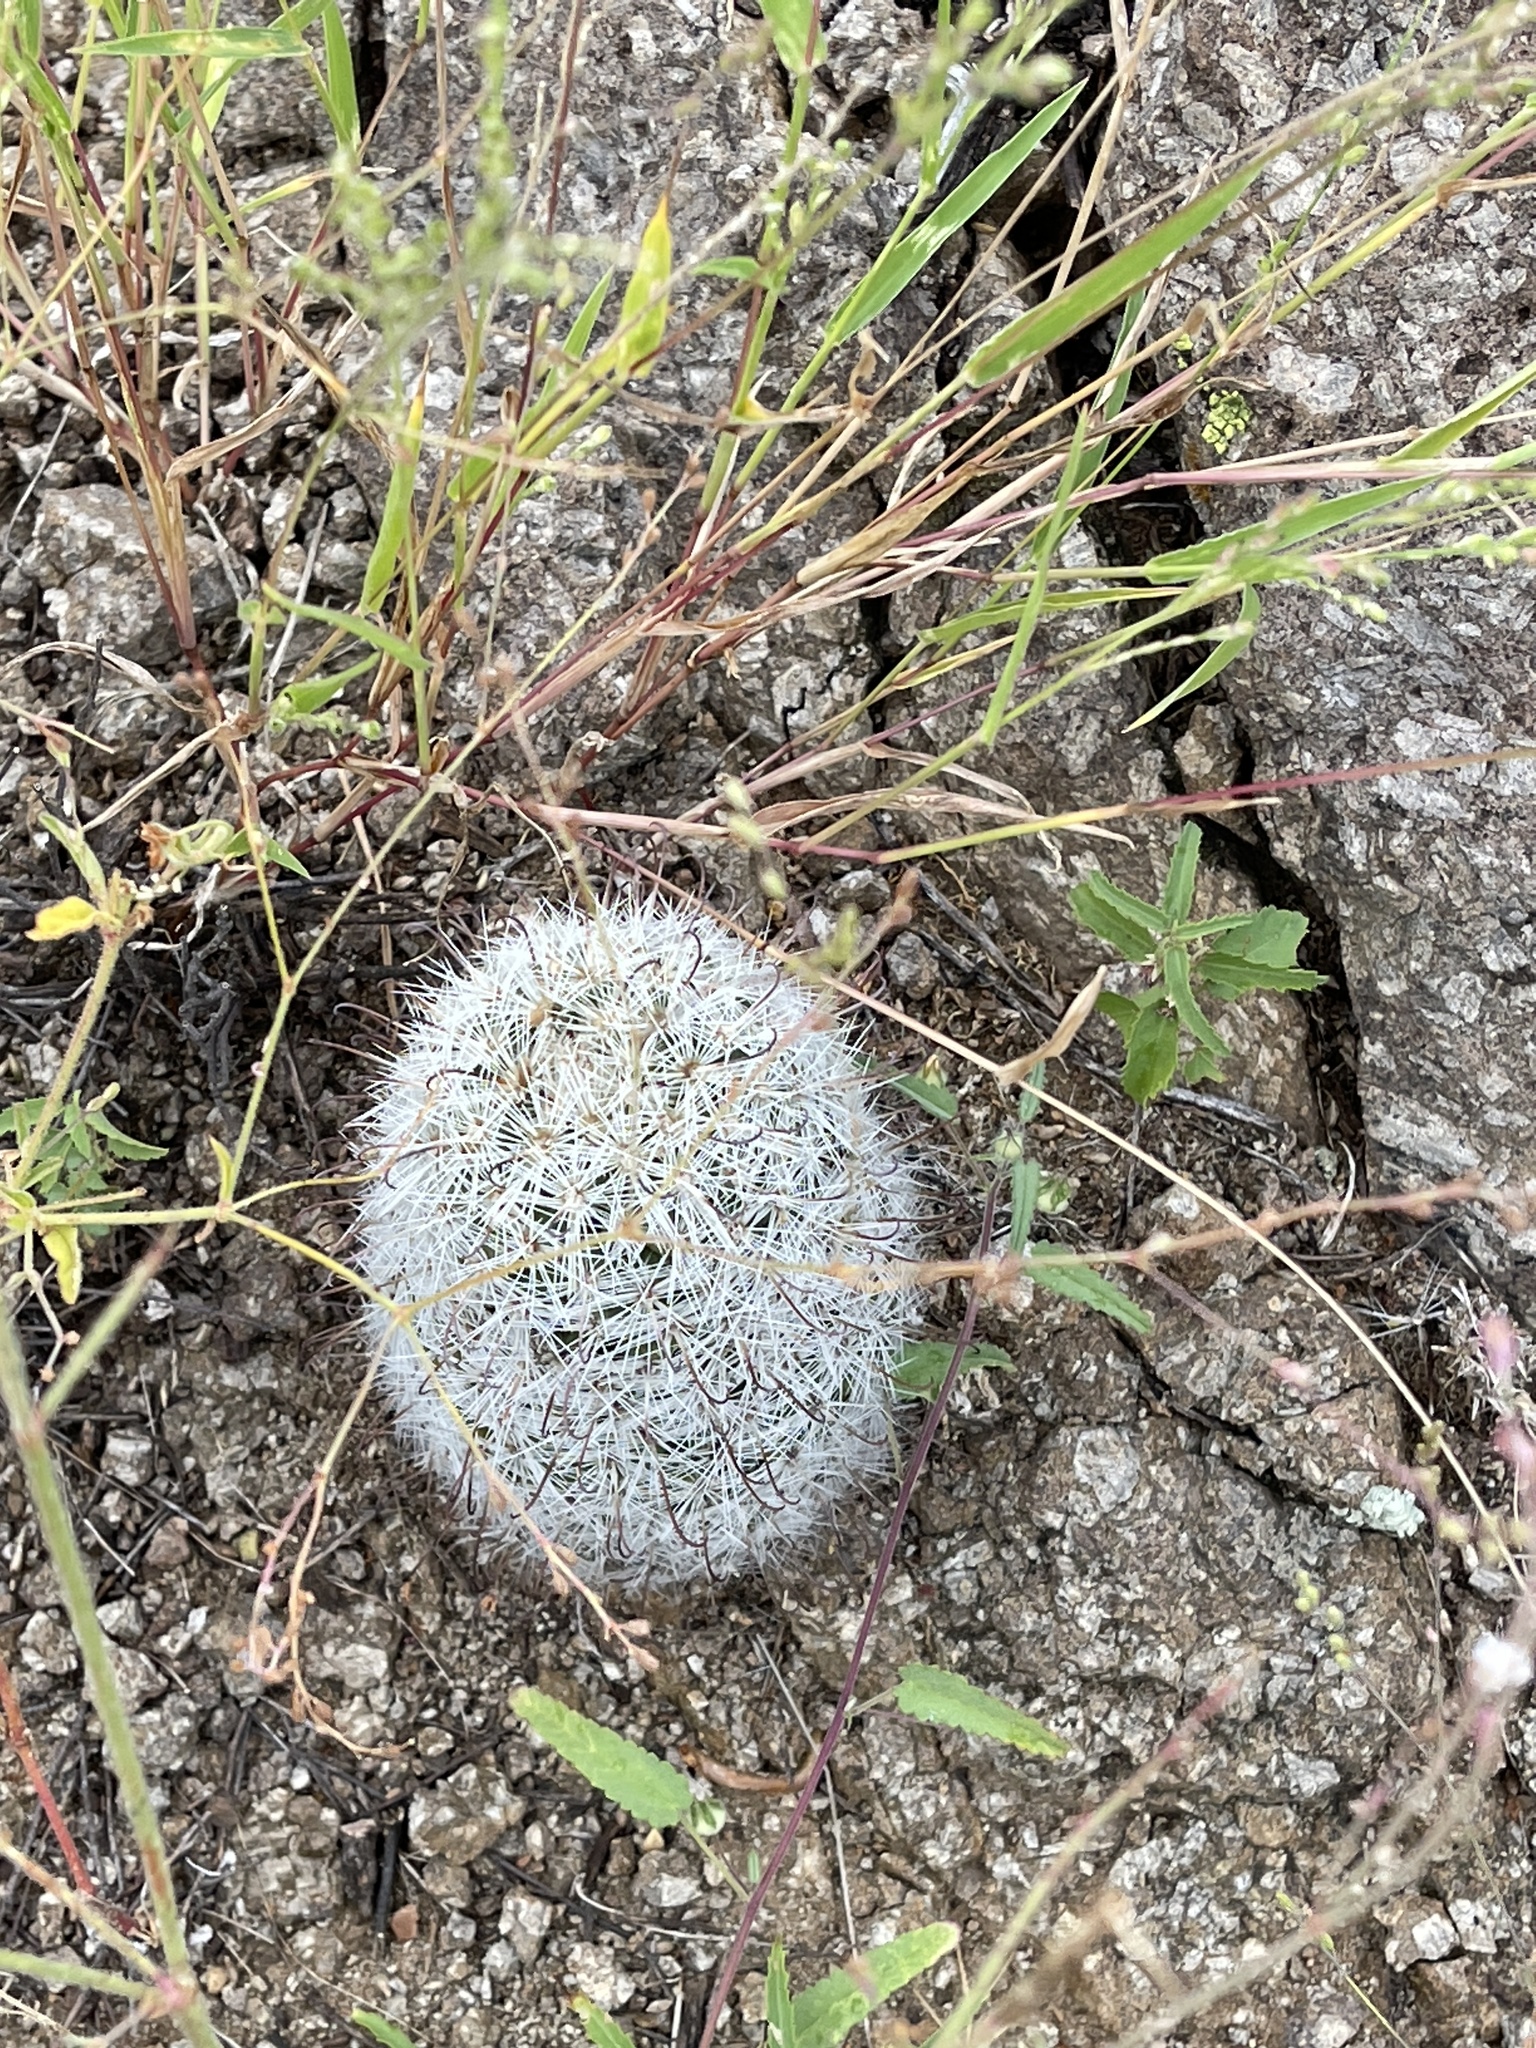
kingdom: Plantae
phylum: Tracheophyta
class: Magnoliopsida
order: Caryophyllales
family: Cactaceae
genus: Cochemiea
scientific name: Cochemiea grahamii
